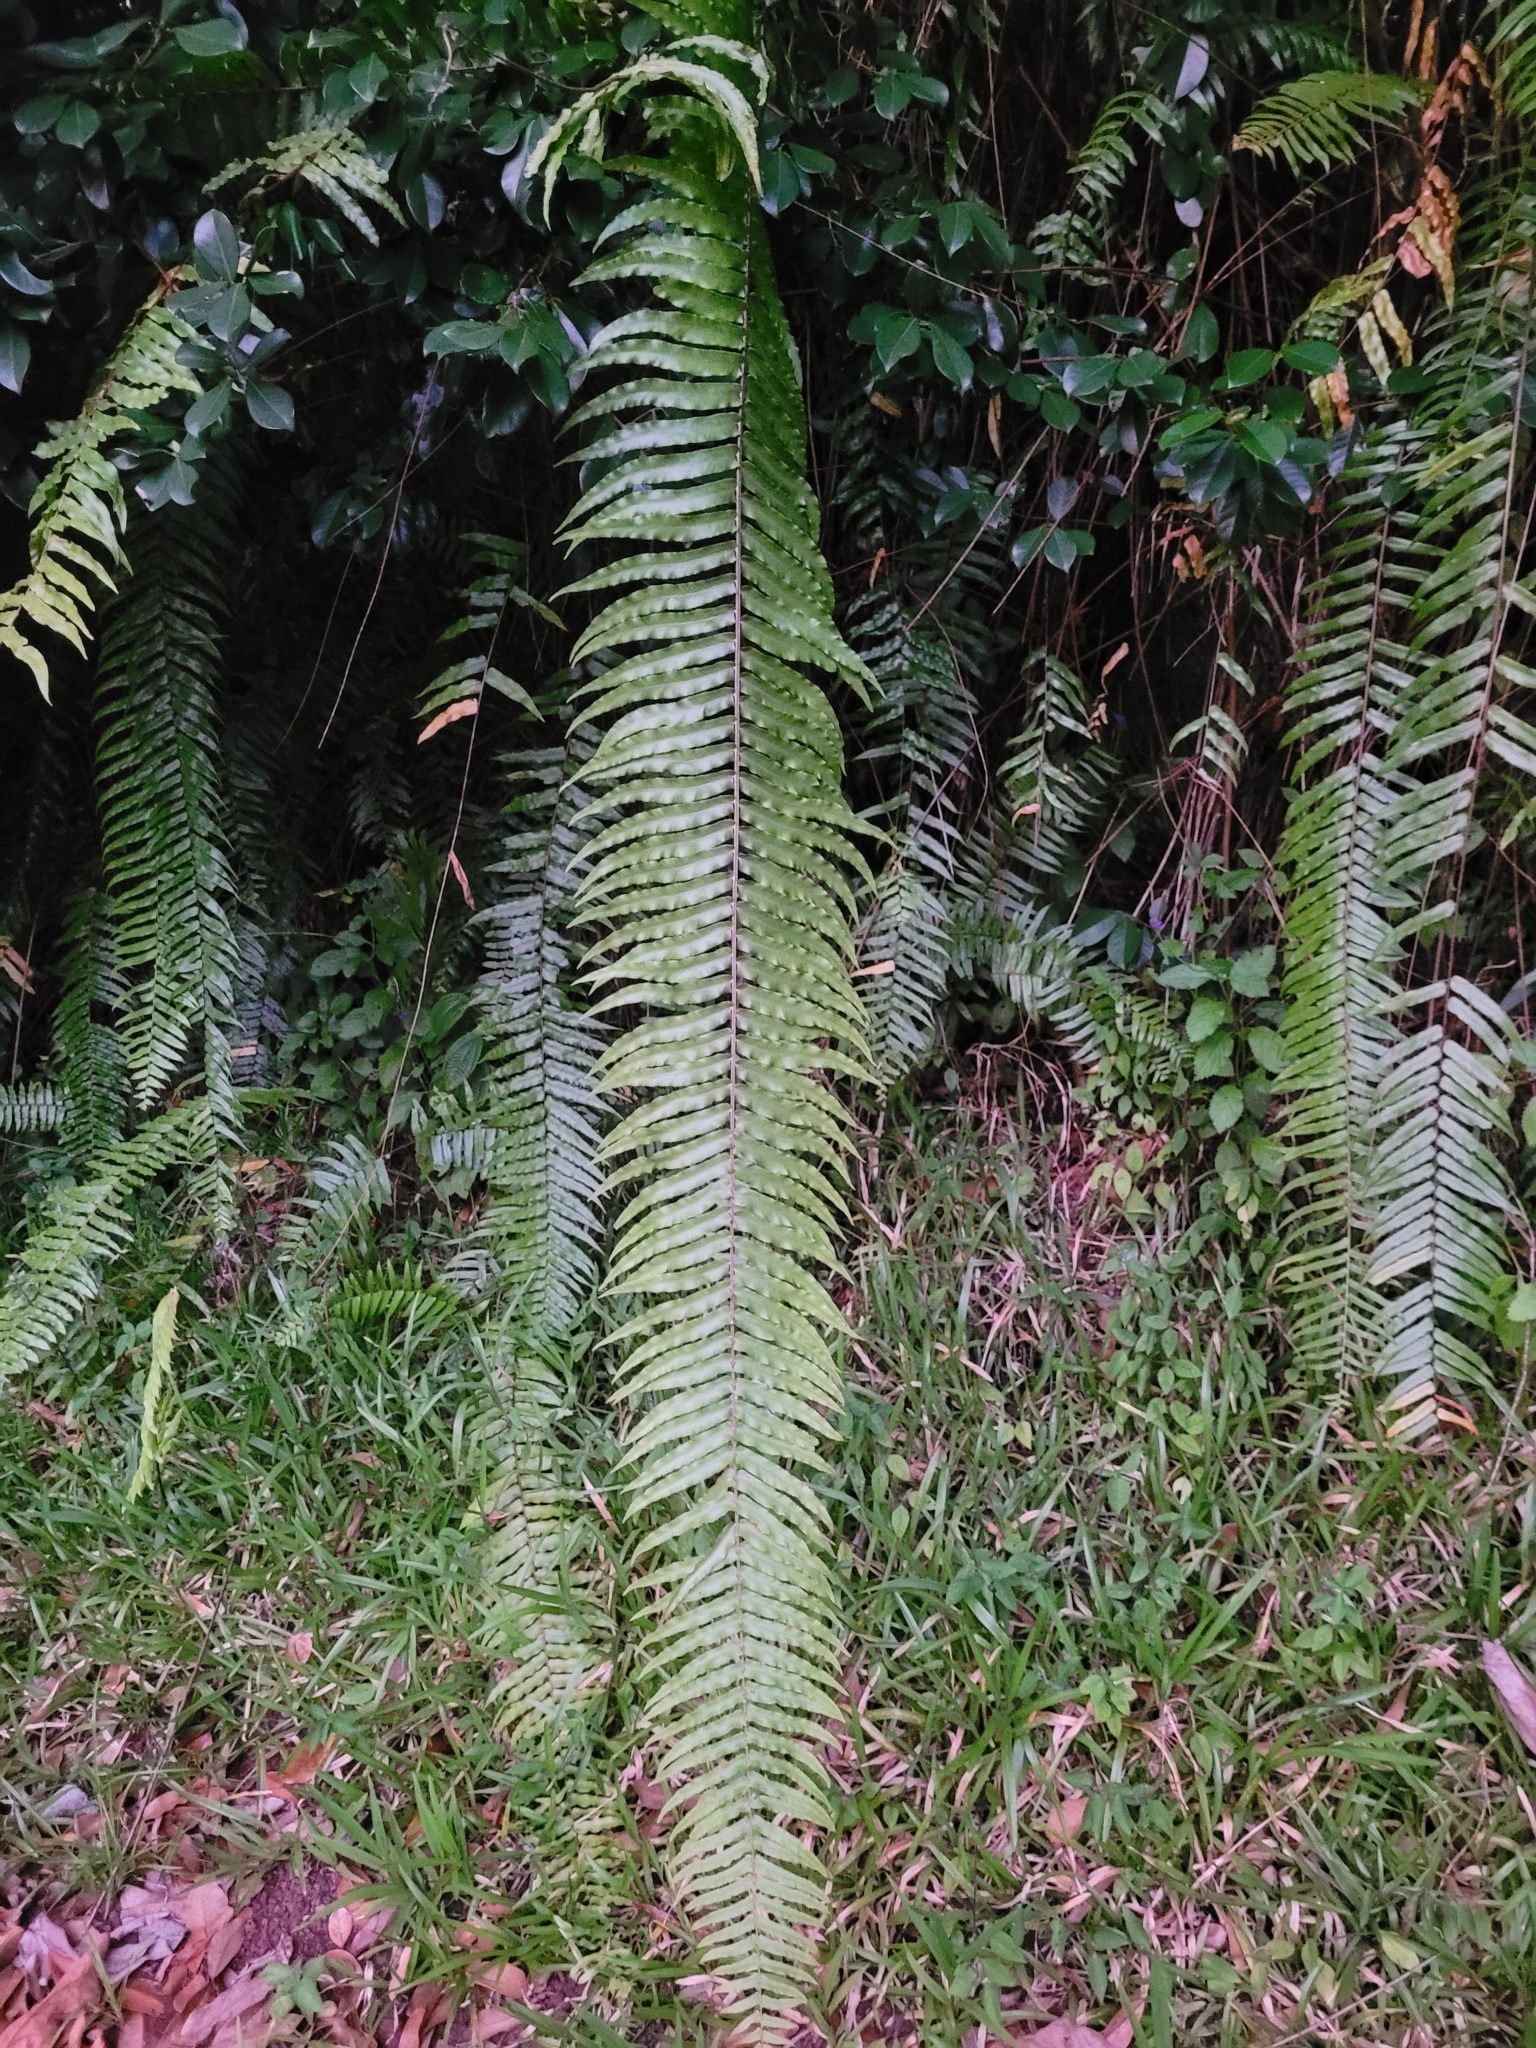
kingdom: Plantae
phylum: Tracheophyta
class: Polypodiopsida
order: Polypodiales
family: Nephrolepidaceae
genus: Nephrolepis
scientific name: Nephrolepis biserrata
